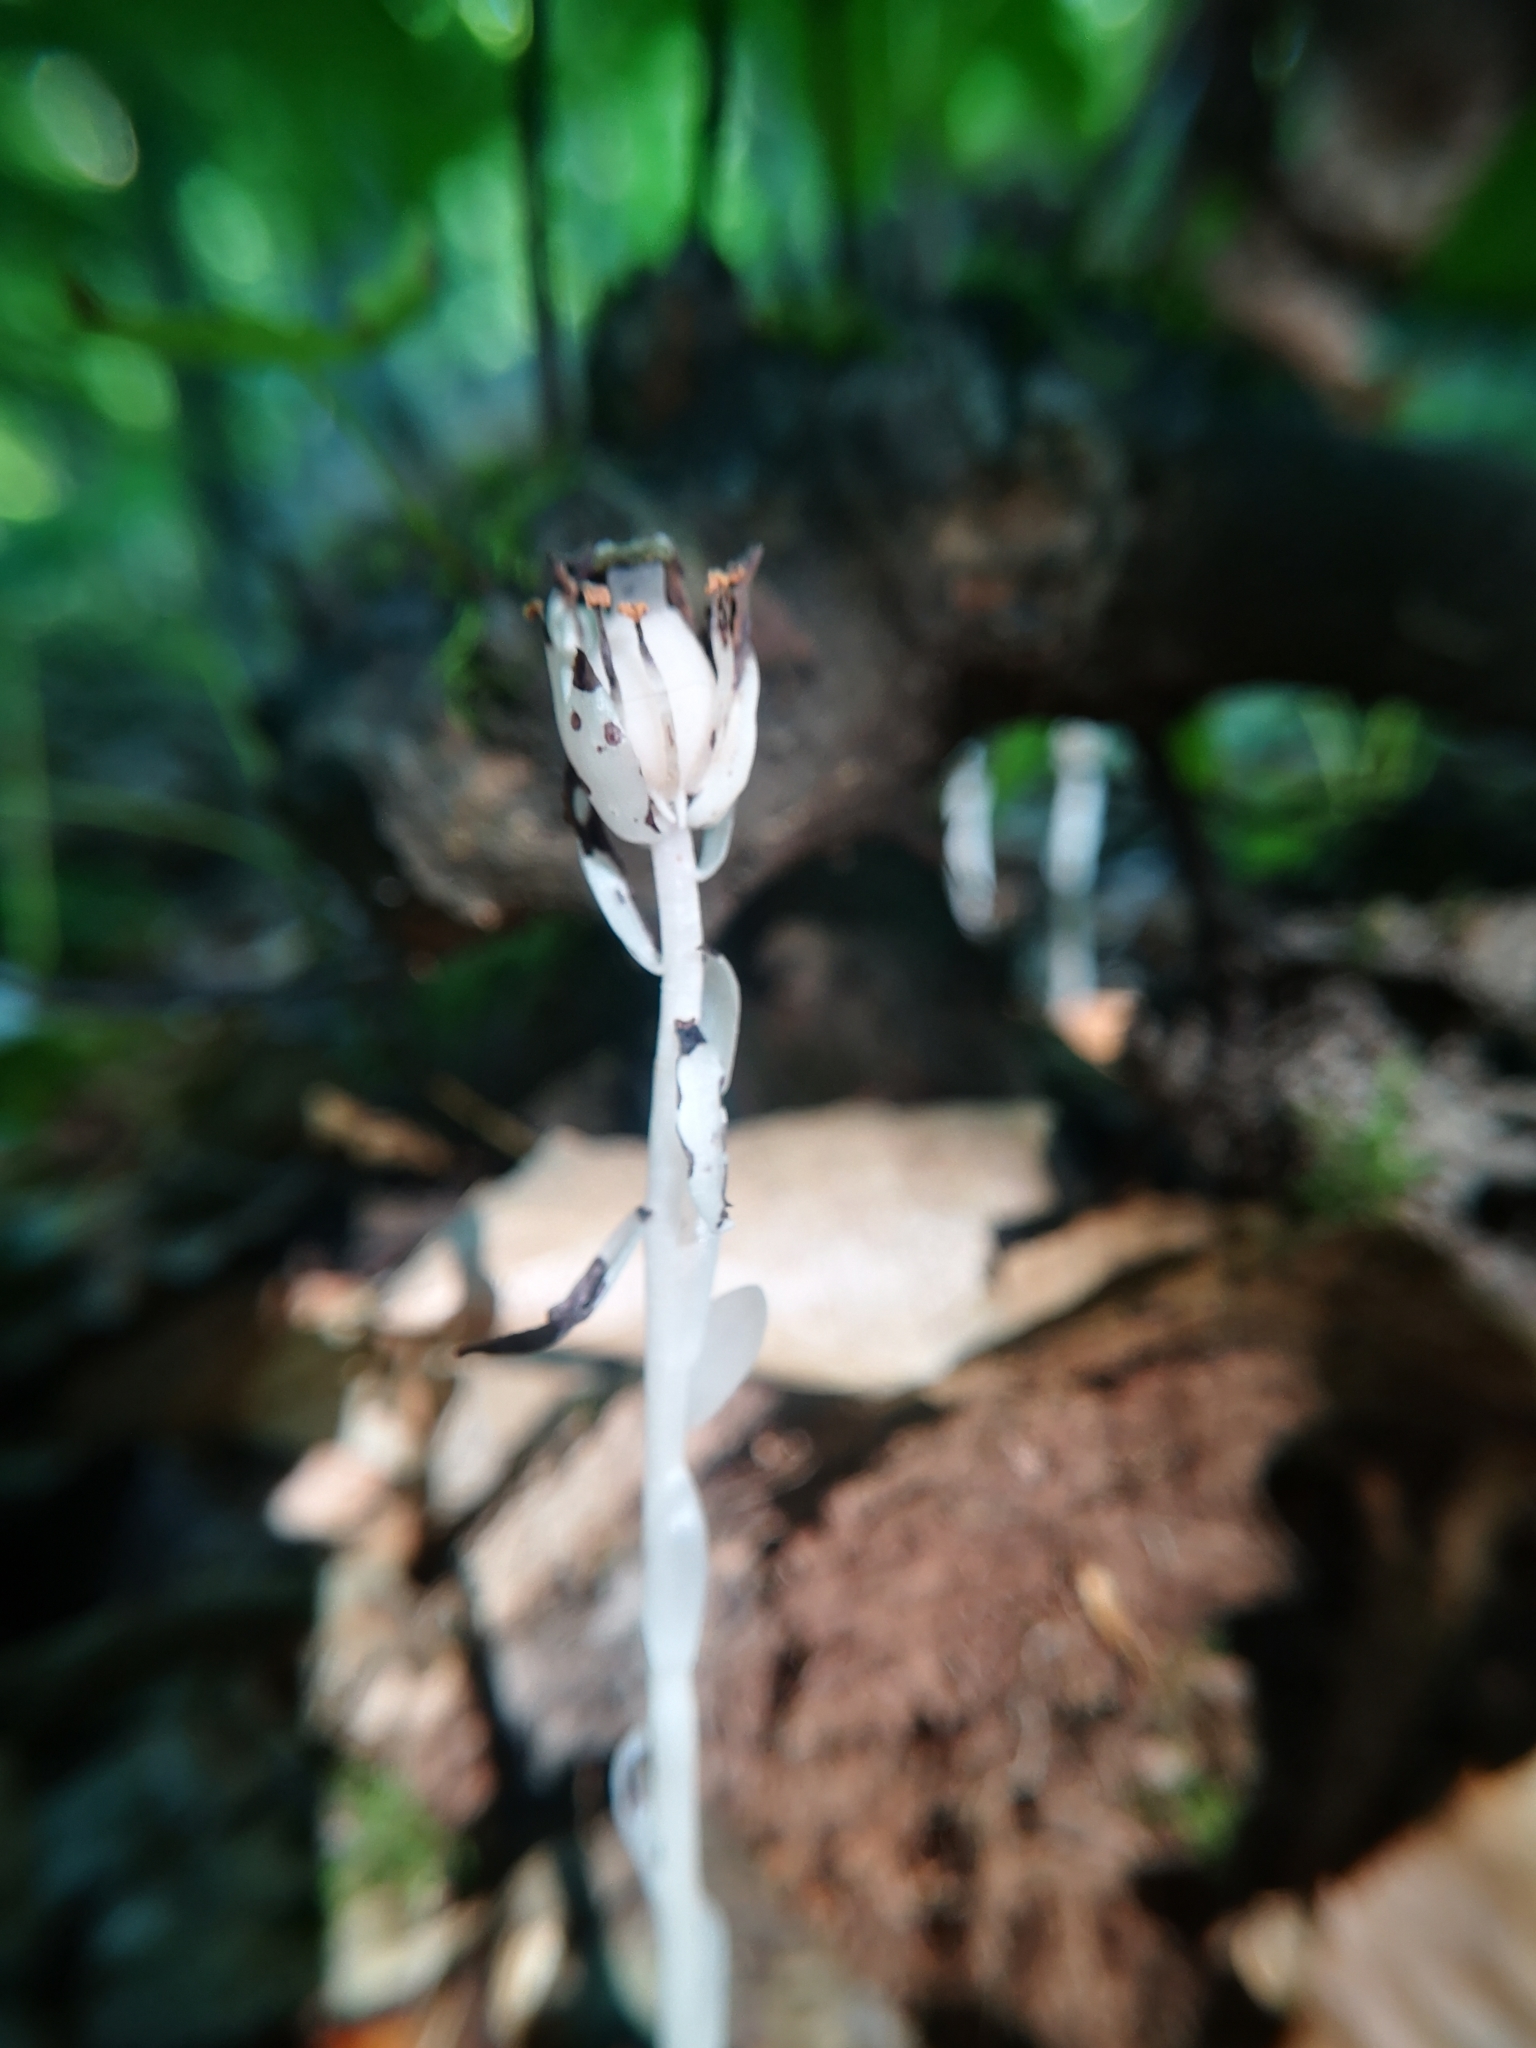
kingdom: Plantae
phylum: Tracheophyta
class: Magnoliopsida
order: Ericales
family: Ericaceae
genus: Monotropa
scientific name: Monotropa uniflora
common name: Convulsion root
